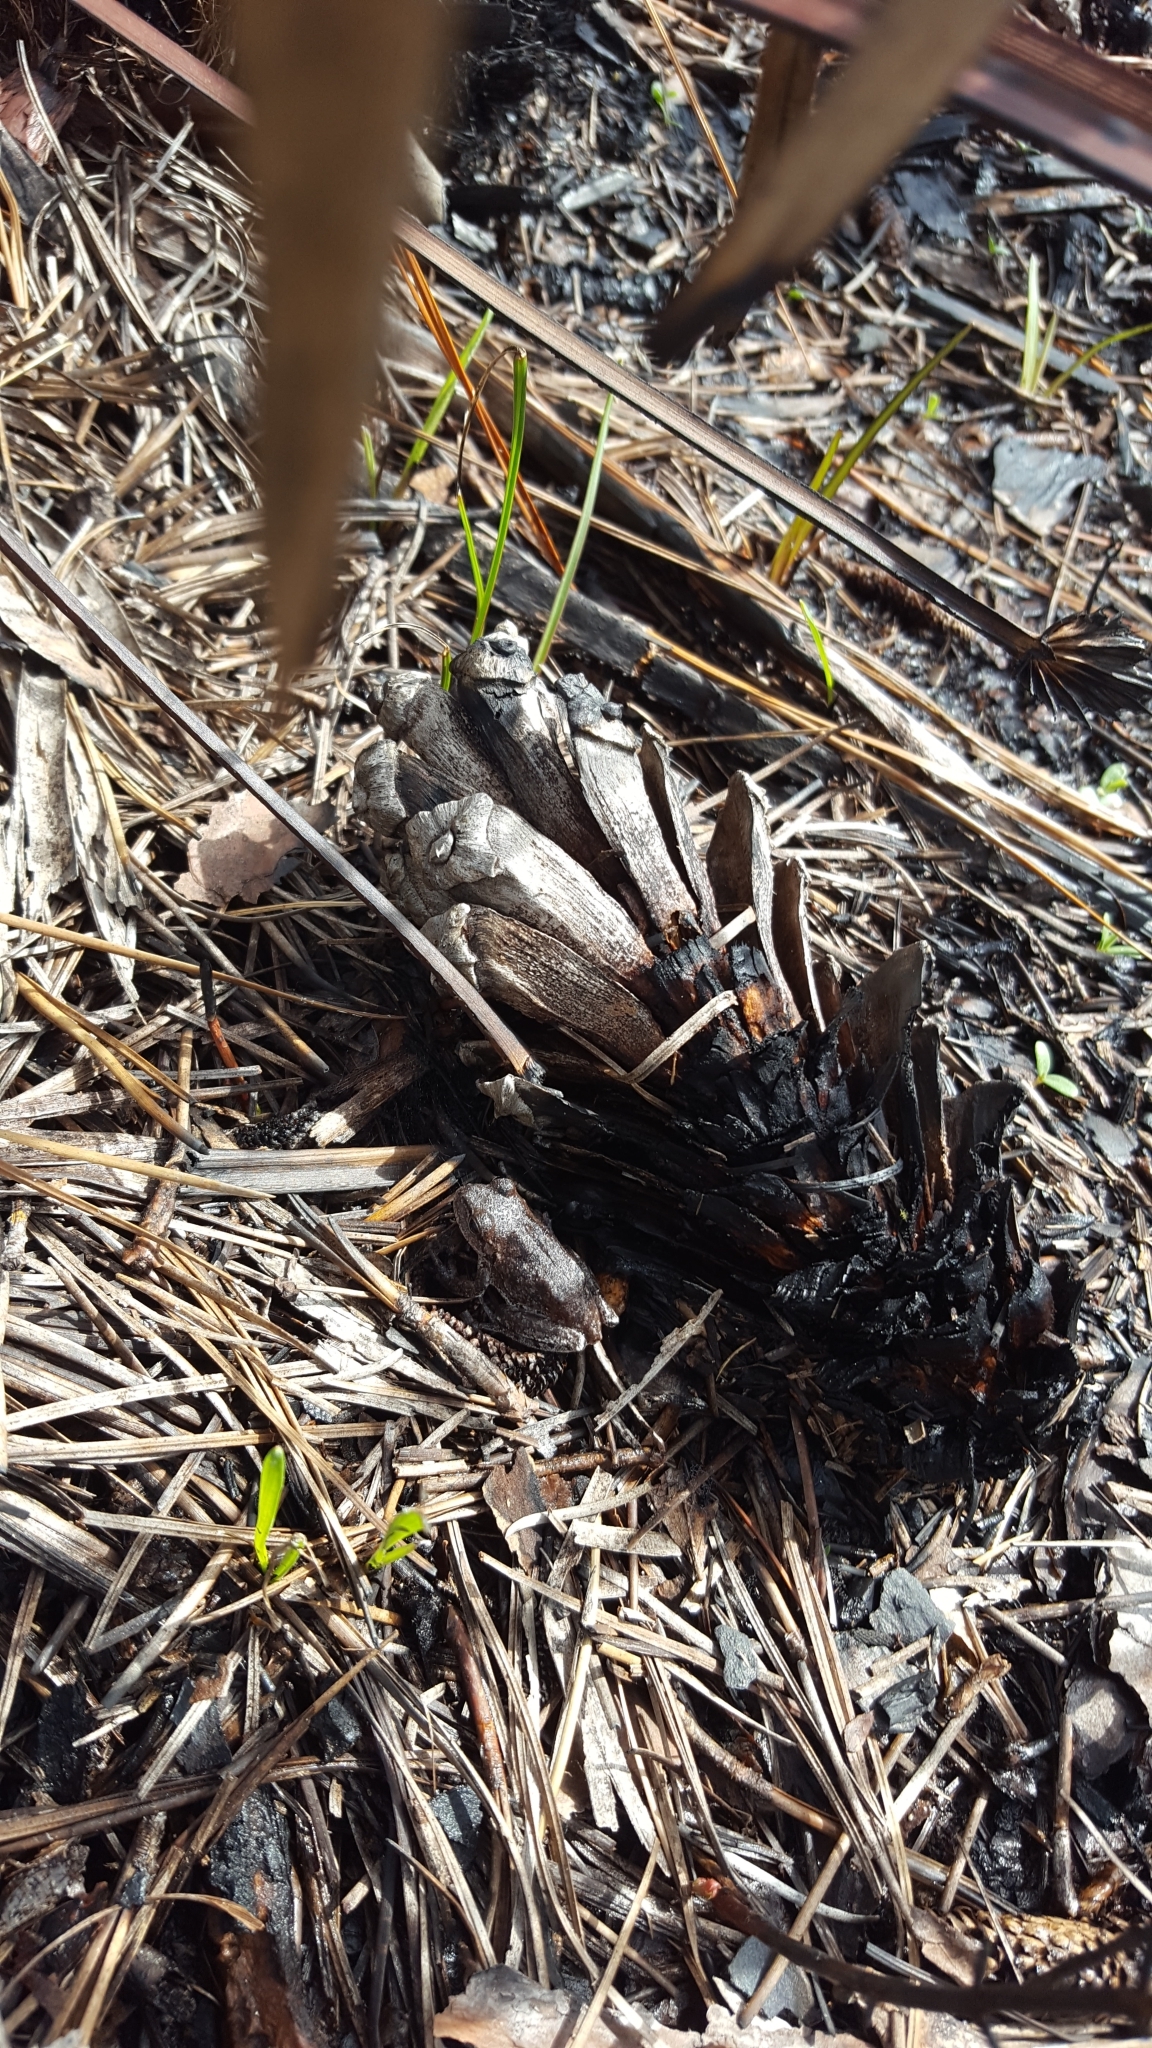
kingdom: Animalia
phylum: Chordata
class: Amphibia
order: Anura
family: Hylidae
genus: Hyla
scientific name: Hyla femoralis
